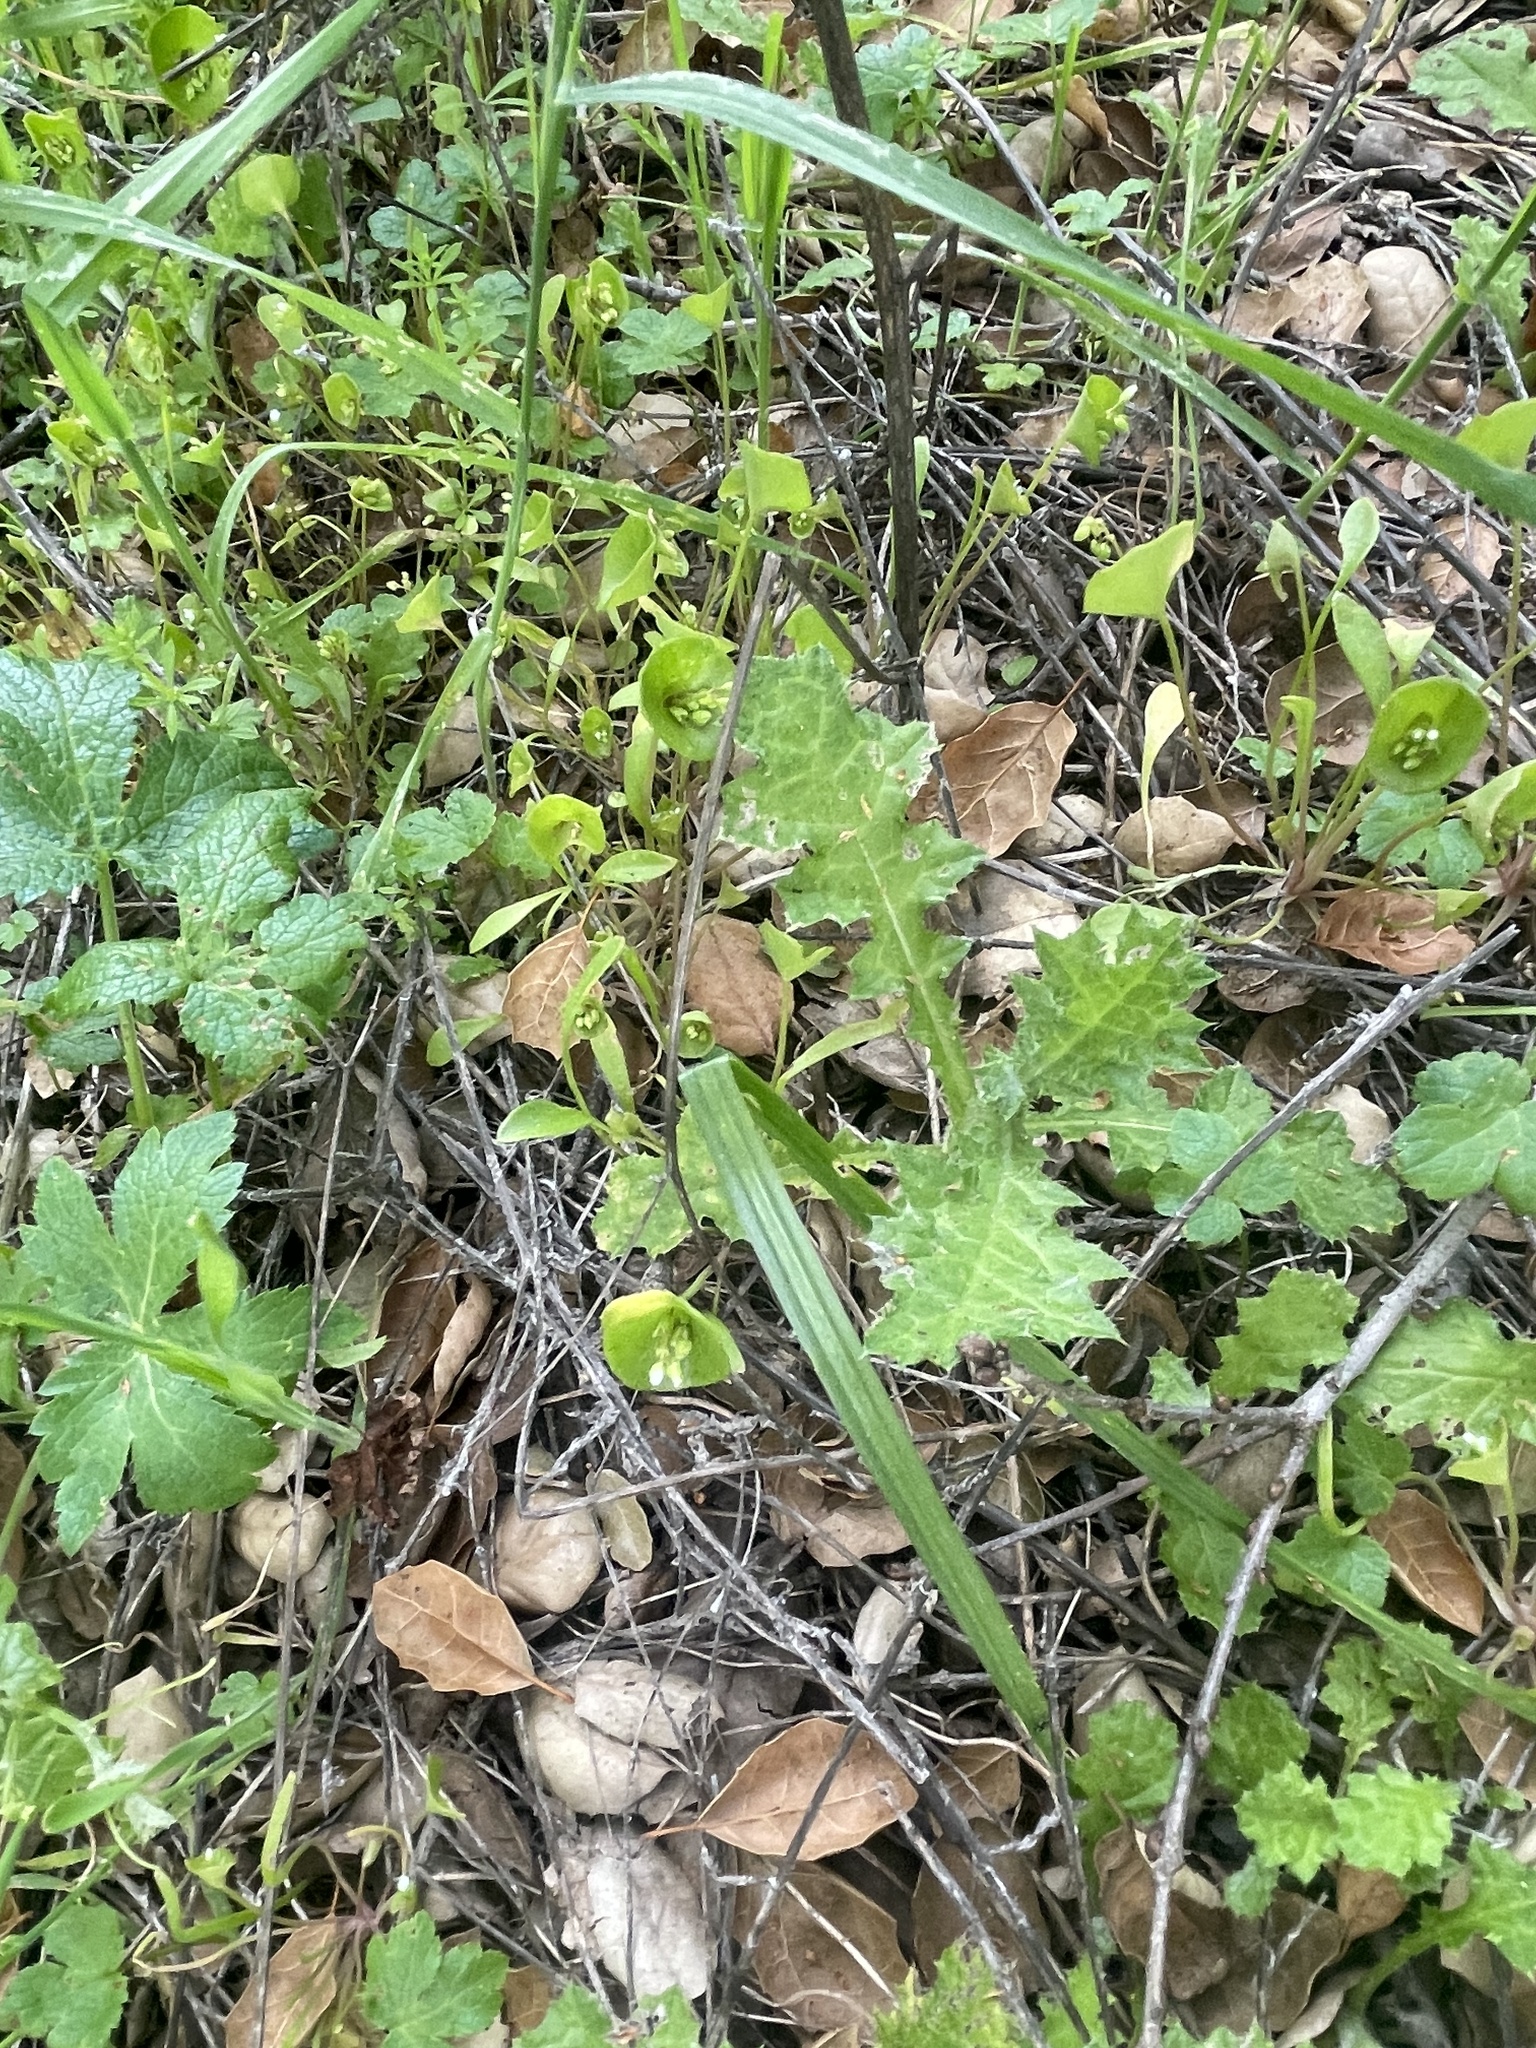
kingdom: Plantae
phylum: Tracheophyta
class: Magnoliopsida
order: Caryophyllales
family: Montiaceae
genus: Claytonia
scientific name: Claytonia perfoliata
